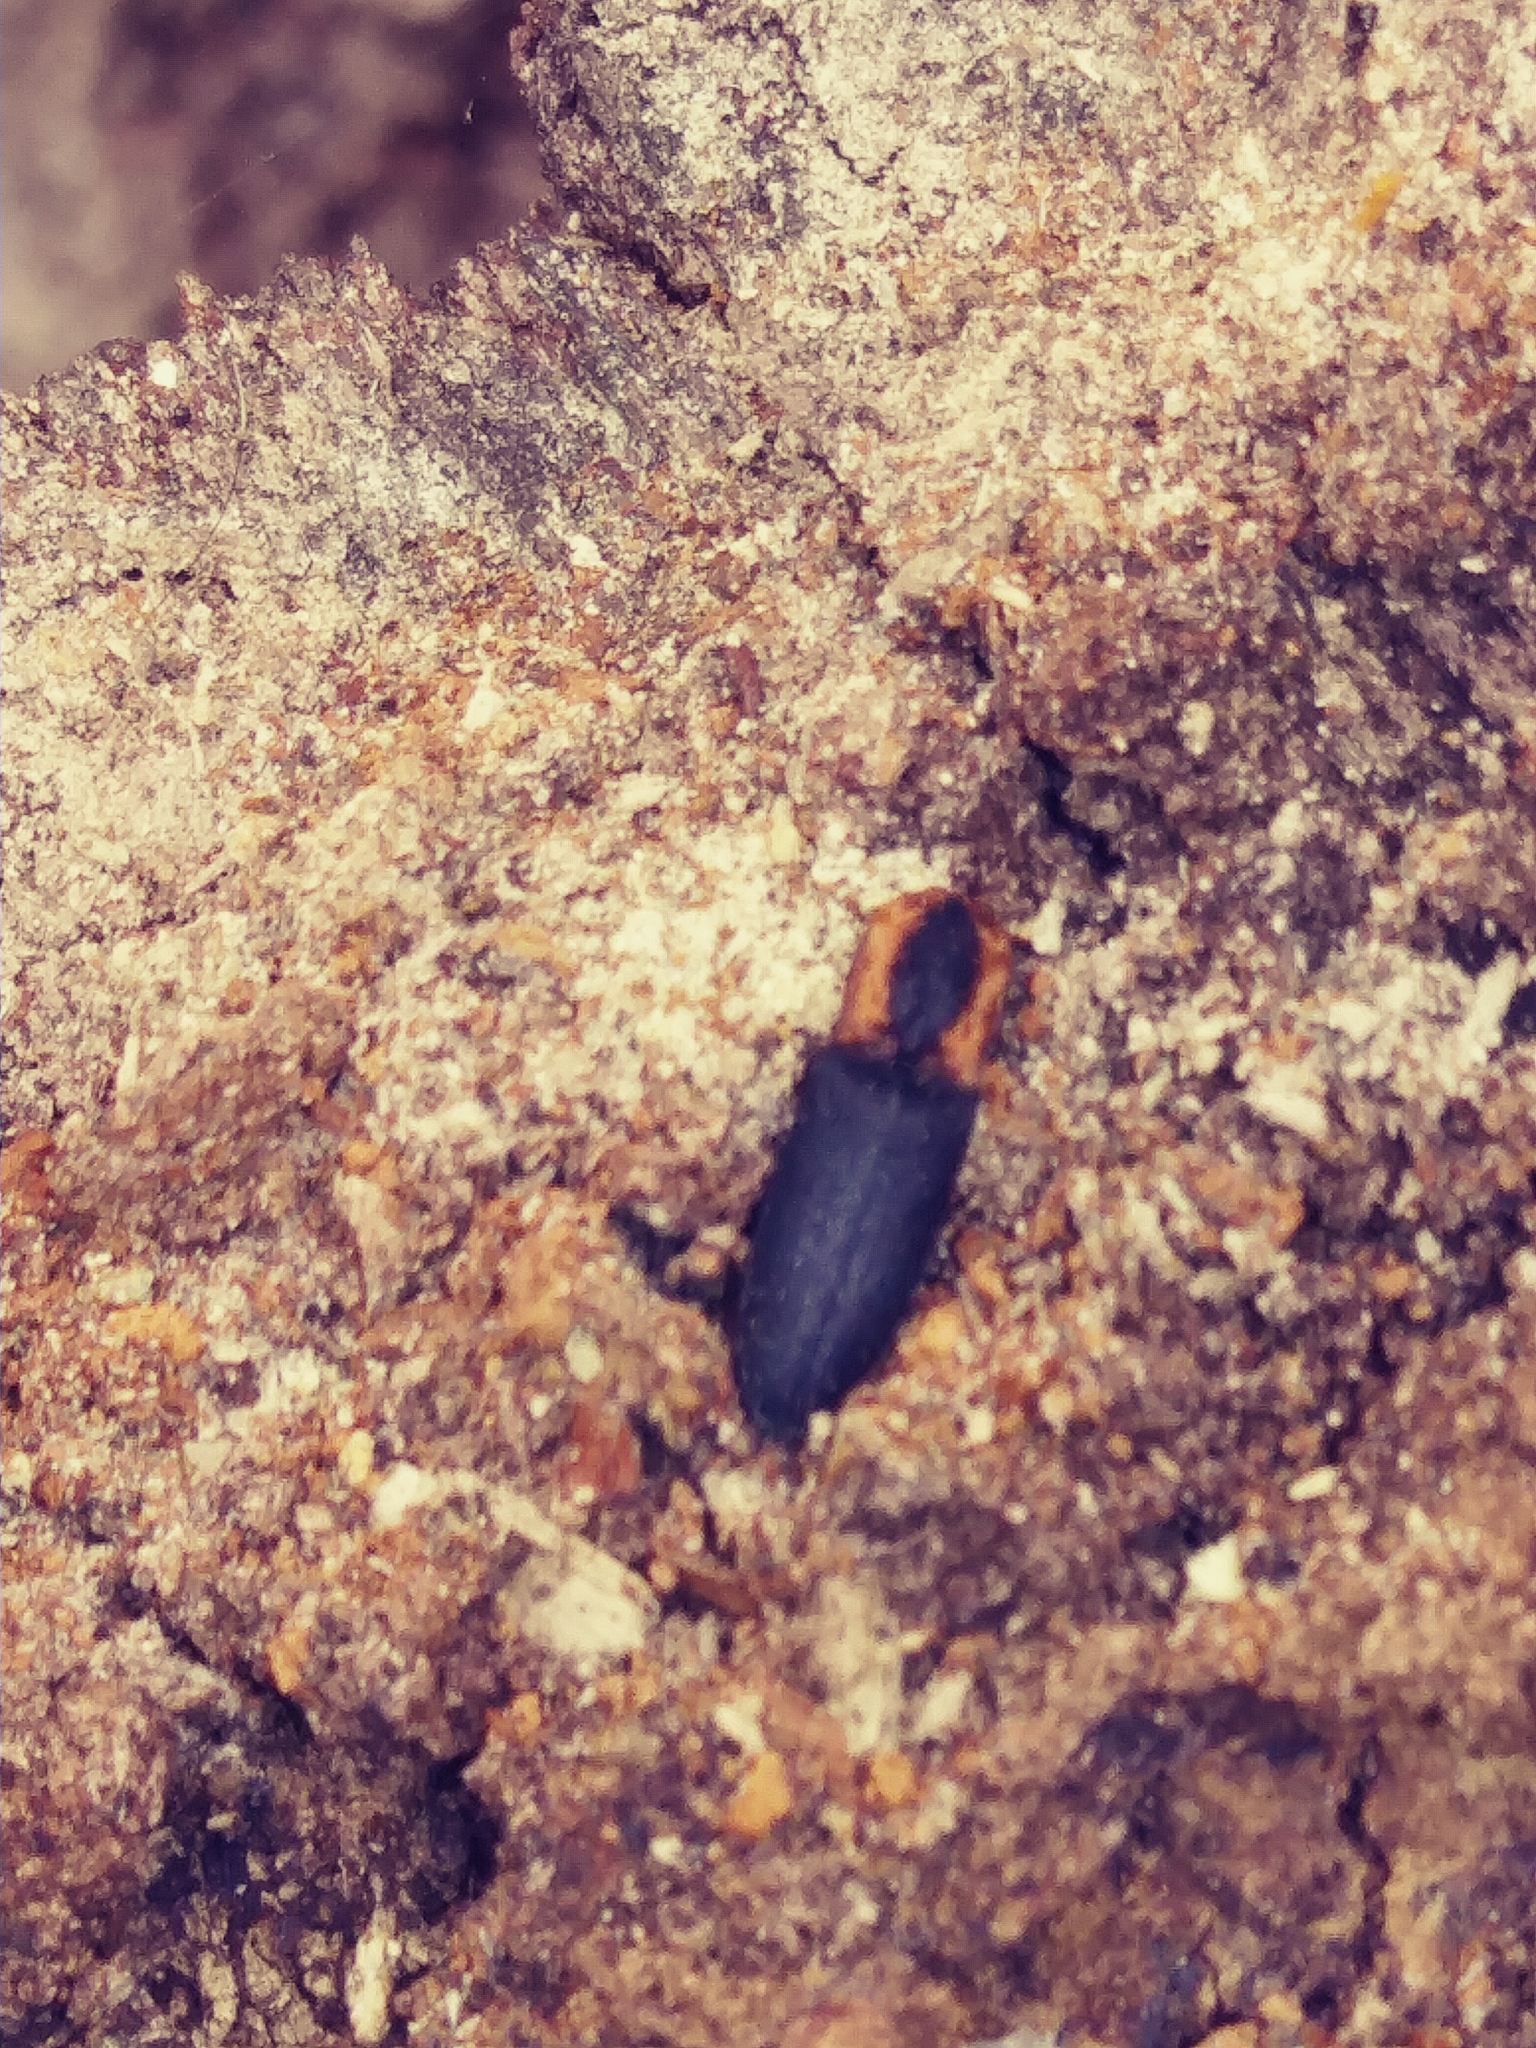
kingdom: Animalia
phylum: Arthropoda
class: Insecta
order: Coleoptera
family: Elateridae
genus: Lacon
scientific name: Lacon discoideus
